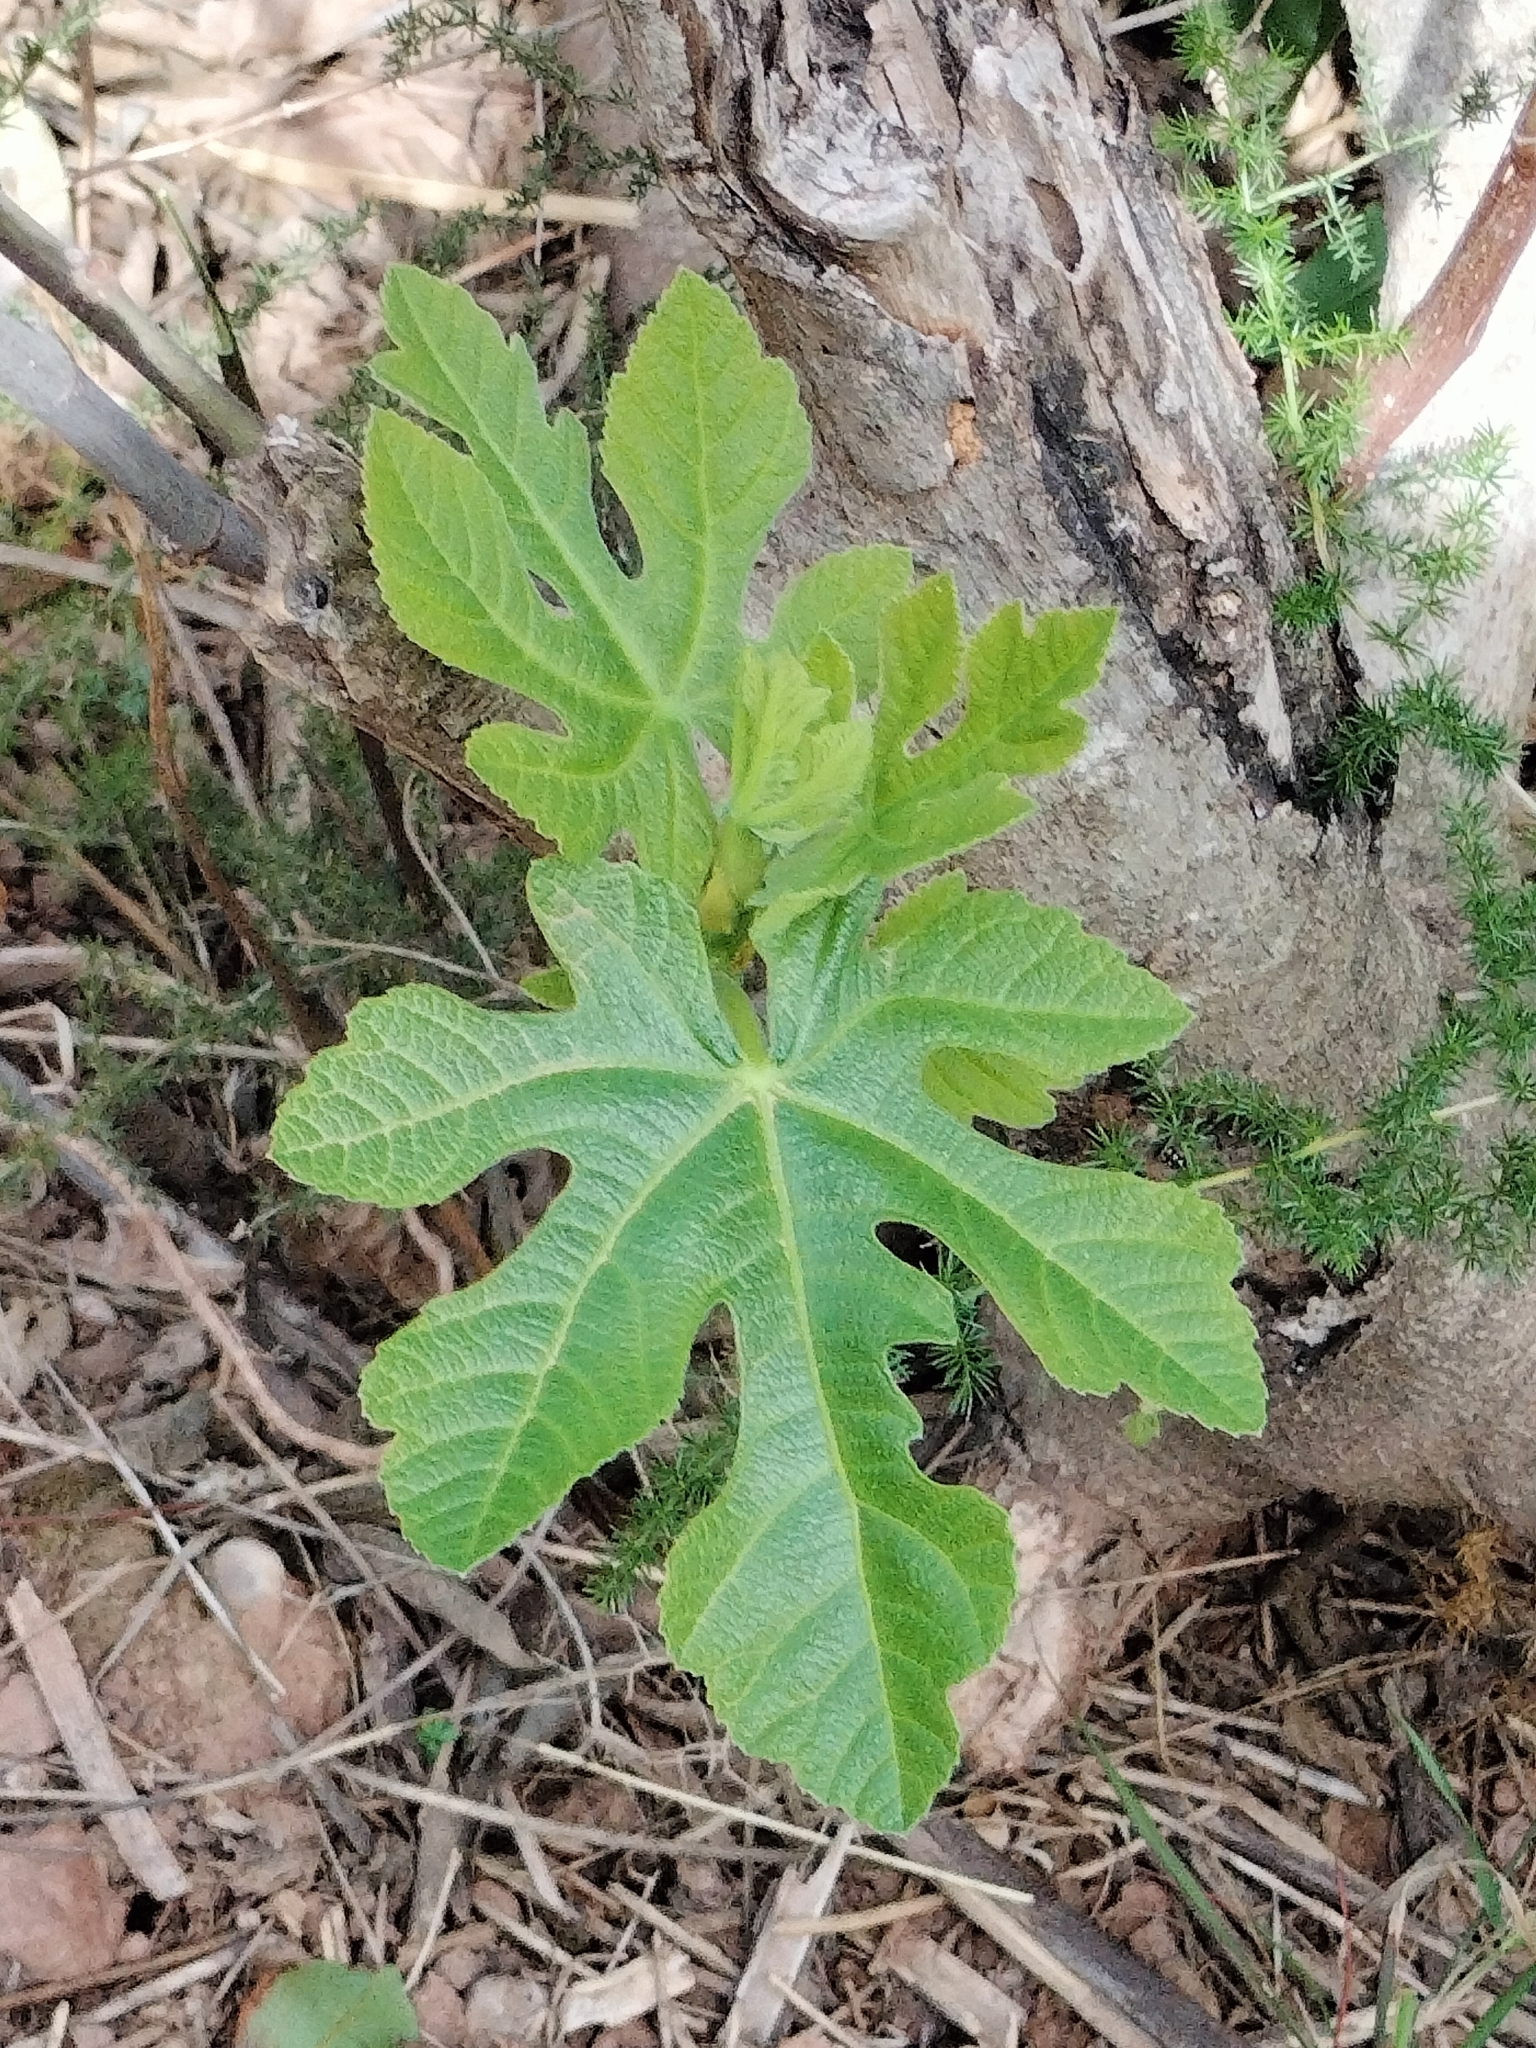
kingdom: Plantae
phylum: Tracheophyta
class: Magnoliopsida
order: Rosales
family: Moraceae
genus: Ficus
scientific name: Ficus carica
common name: Fig
